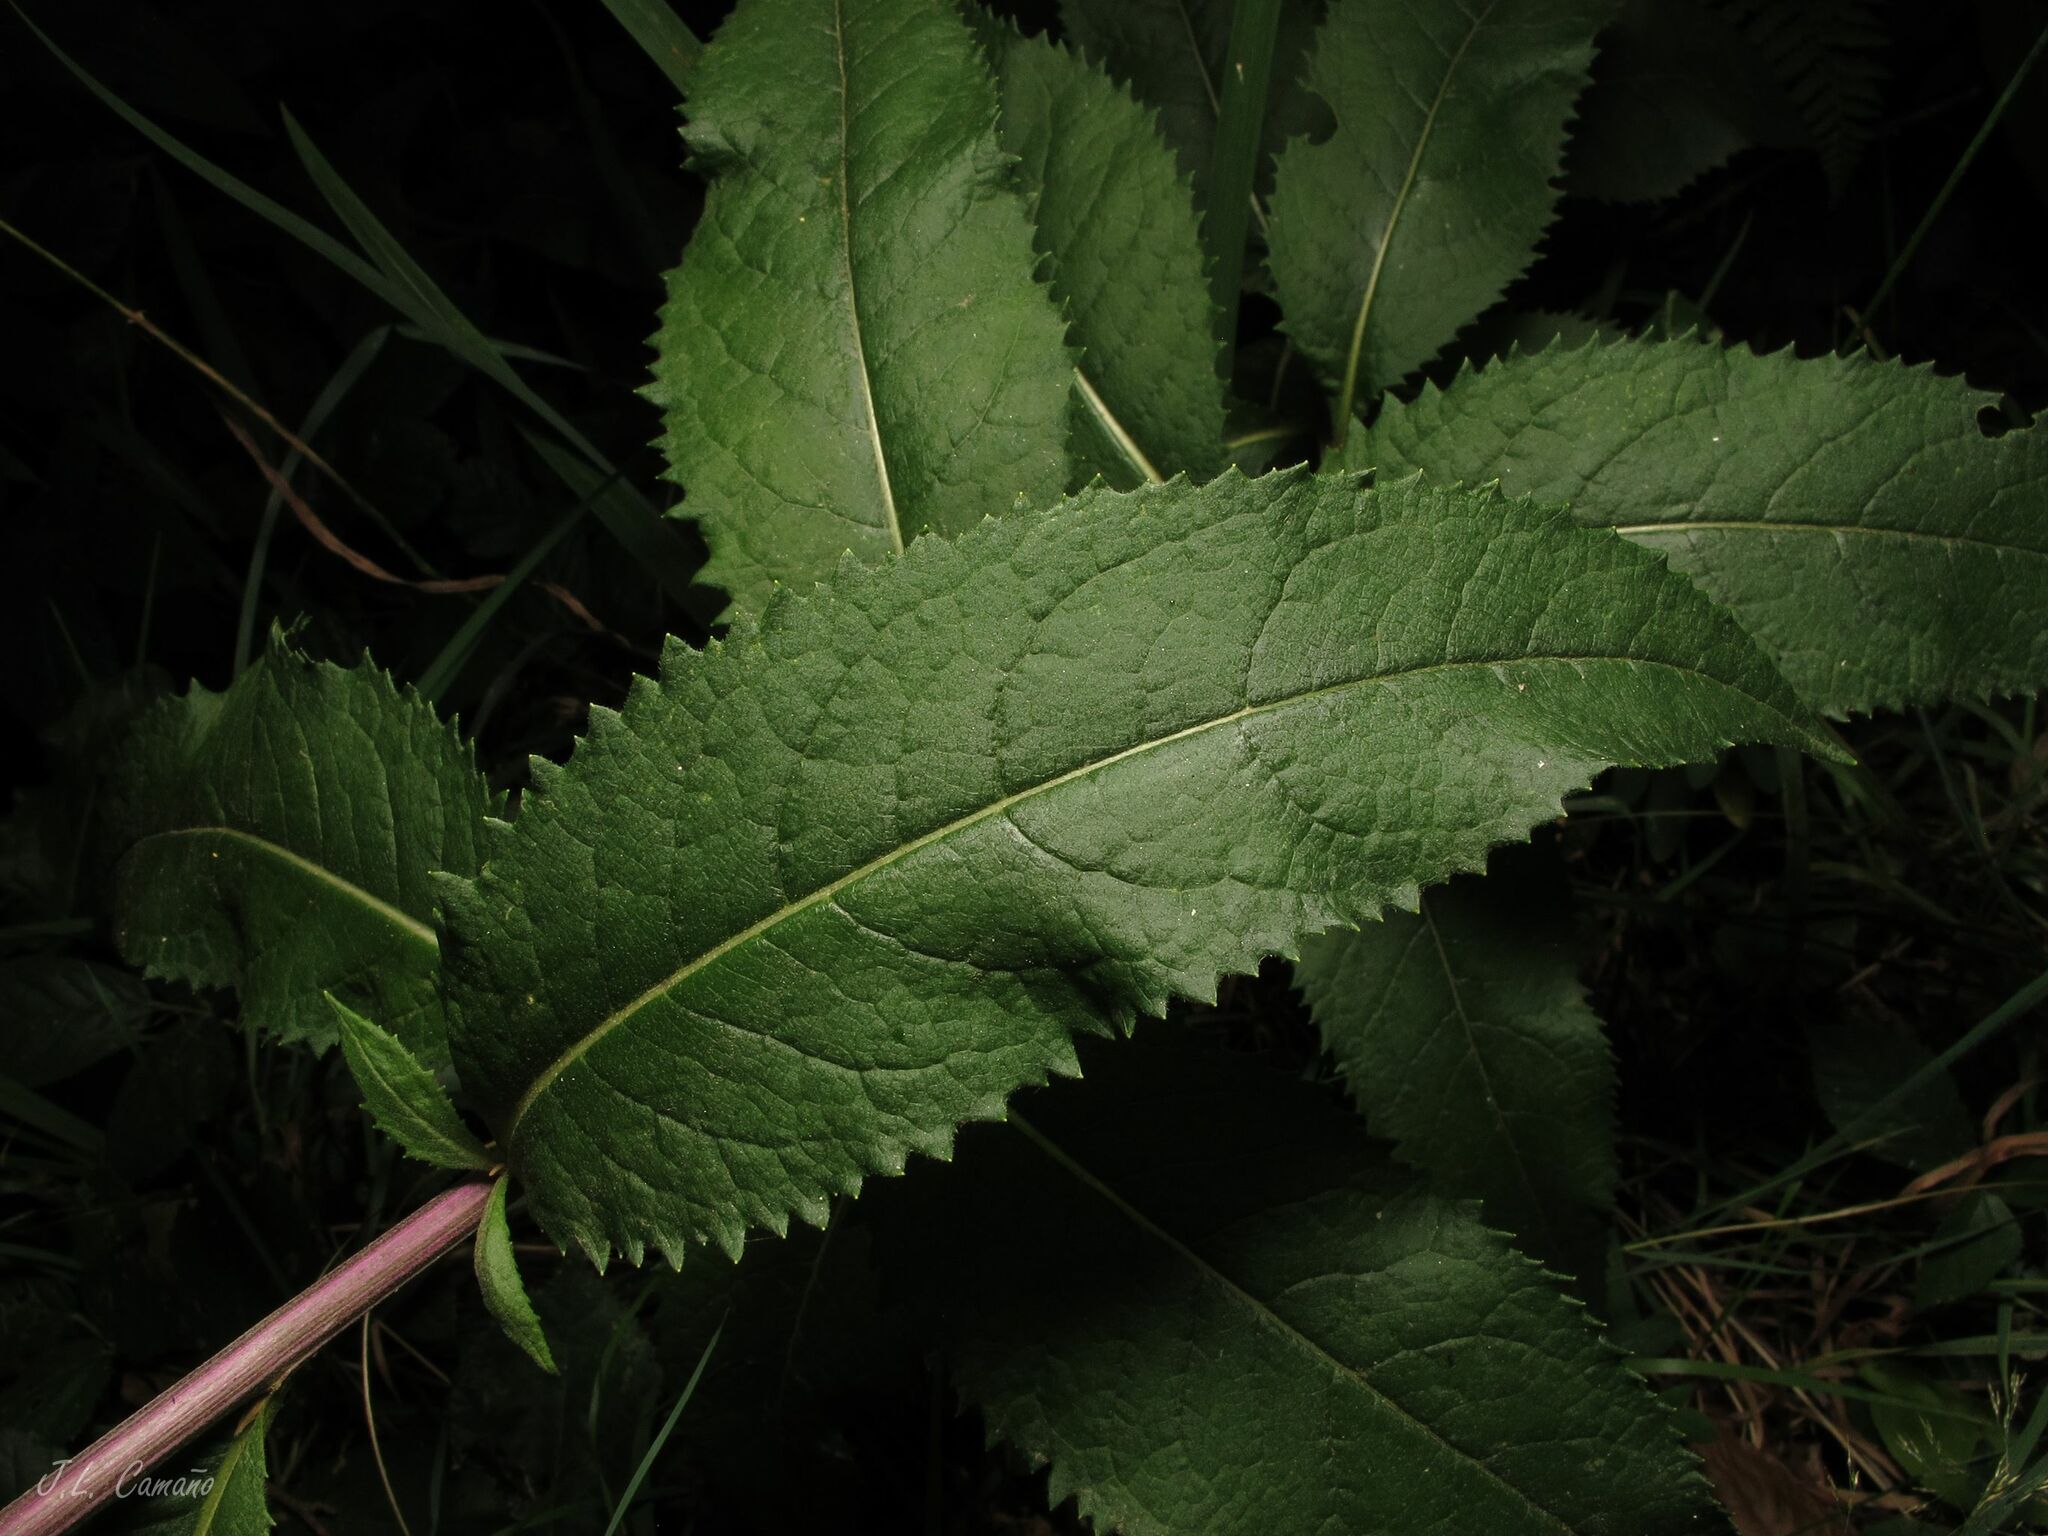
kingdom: Plantae
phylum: Tracheophyta
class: Magnoliopsida
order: Asterales
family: Asteraceae
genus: Senecio
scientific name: Senecio bayonnensis
